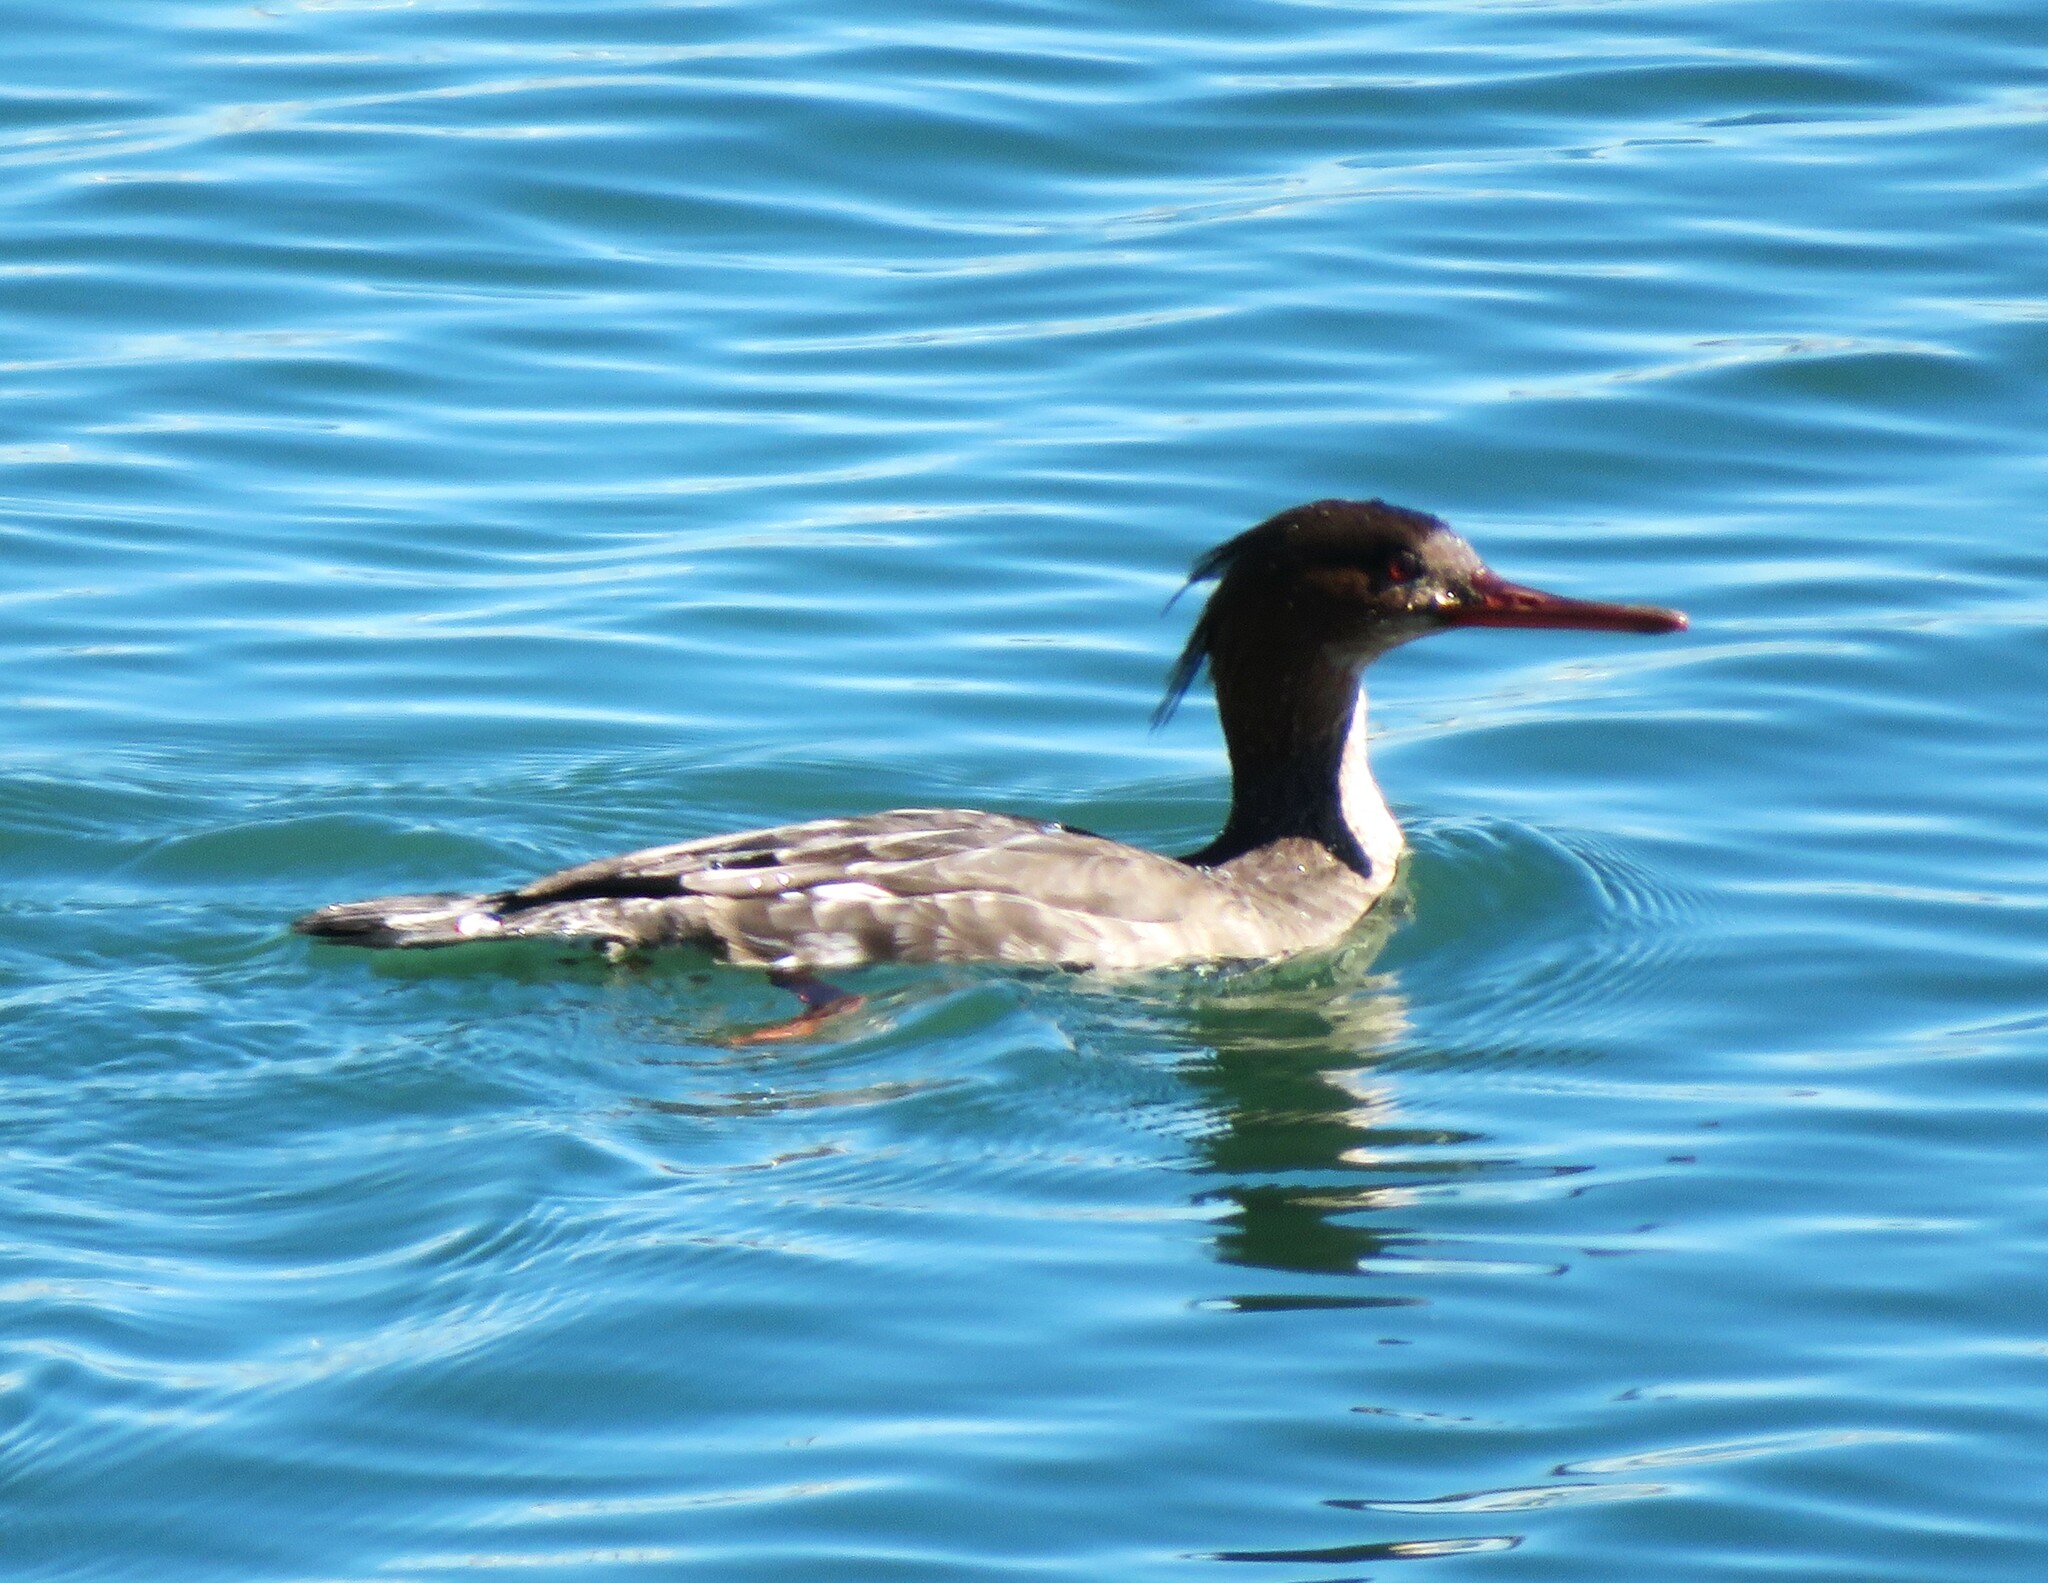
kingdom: Animalia
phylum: Chordata
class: Aves
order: Anseriformes
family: Anatidae
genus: Mergus
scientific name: Mergus serrator
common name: Red-breasted merganser
